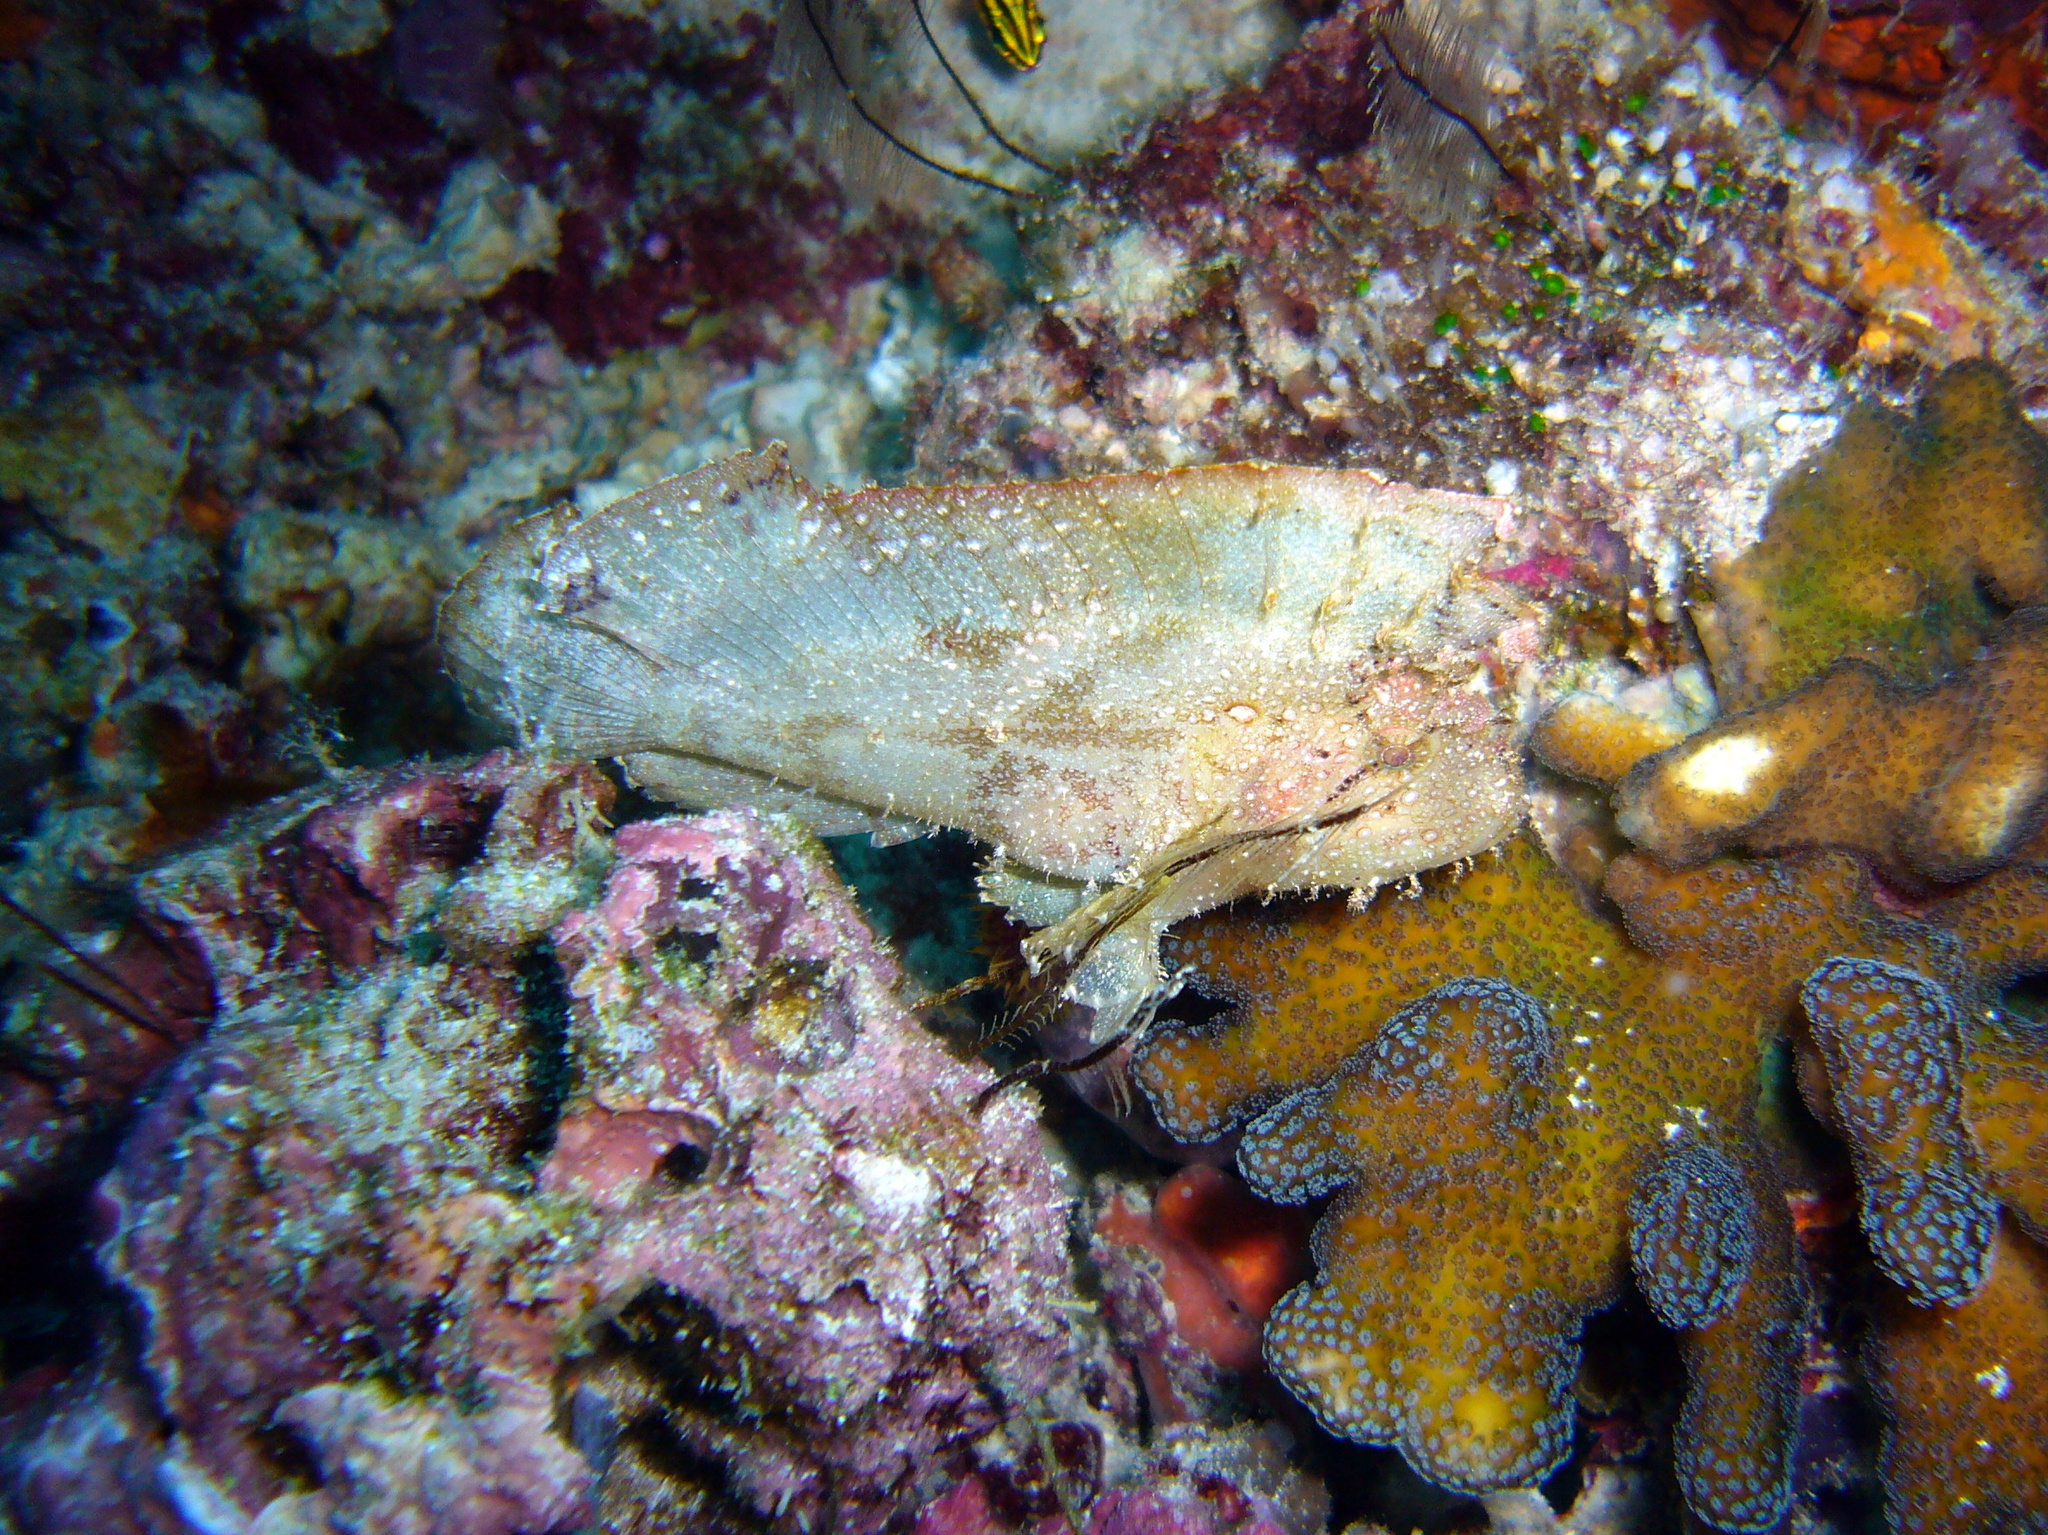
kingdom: Animalia
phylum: Chordata
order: Scorpaeniformes
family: Scorpaenidae
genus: Taenianotus
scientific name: Taenianotus triacanthus
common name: Leaf scorpionfish
